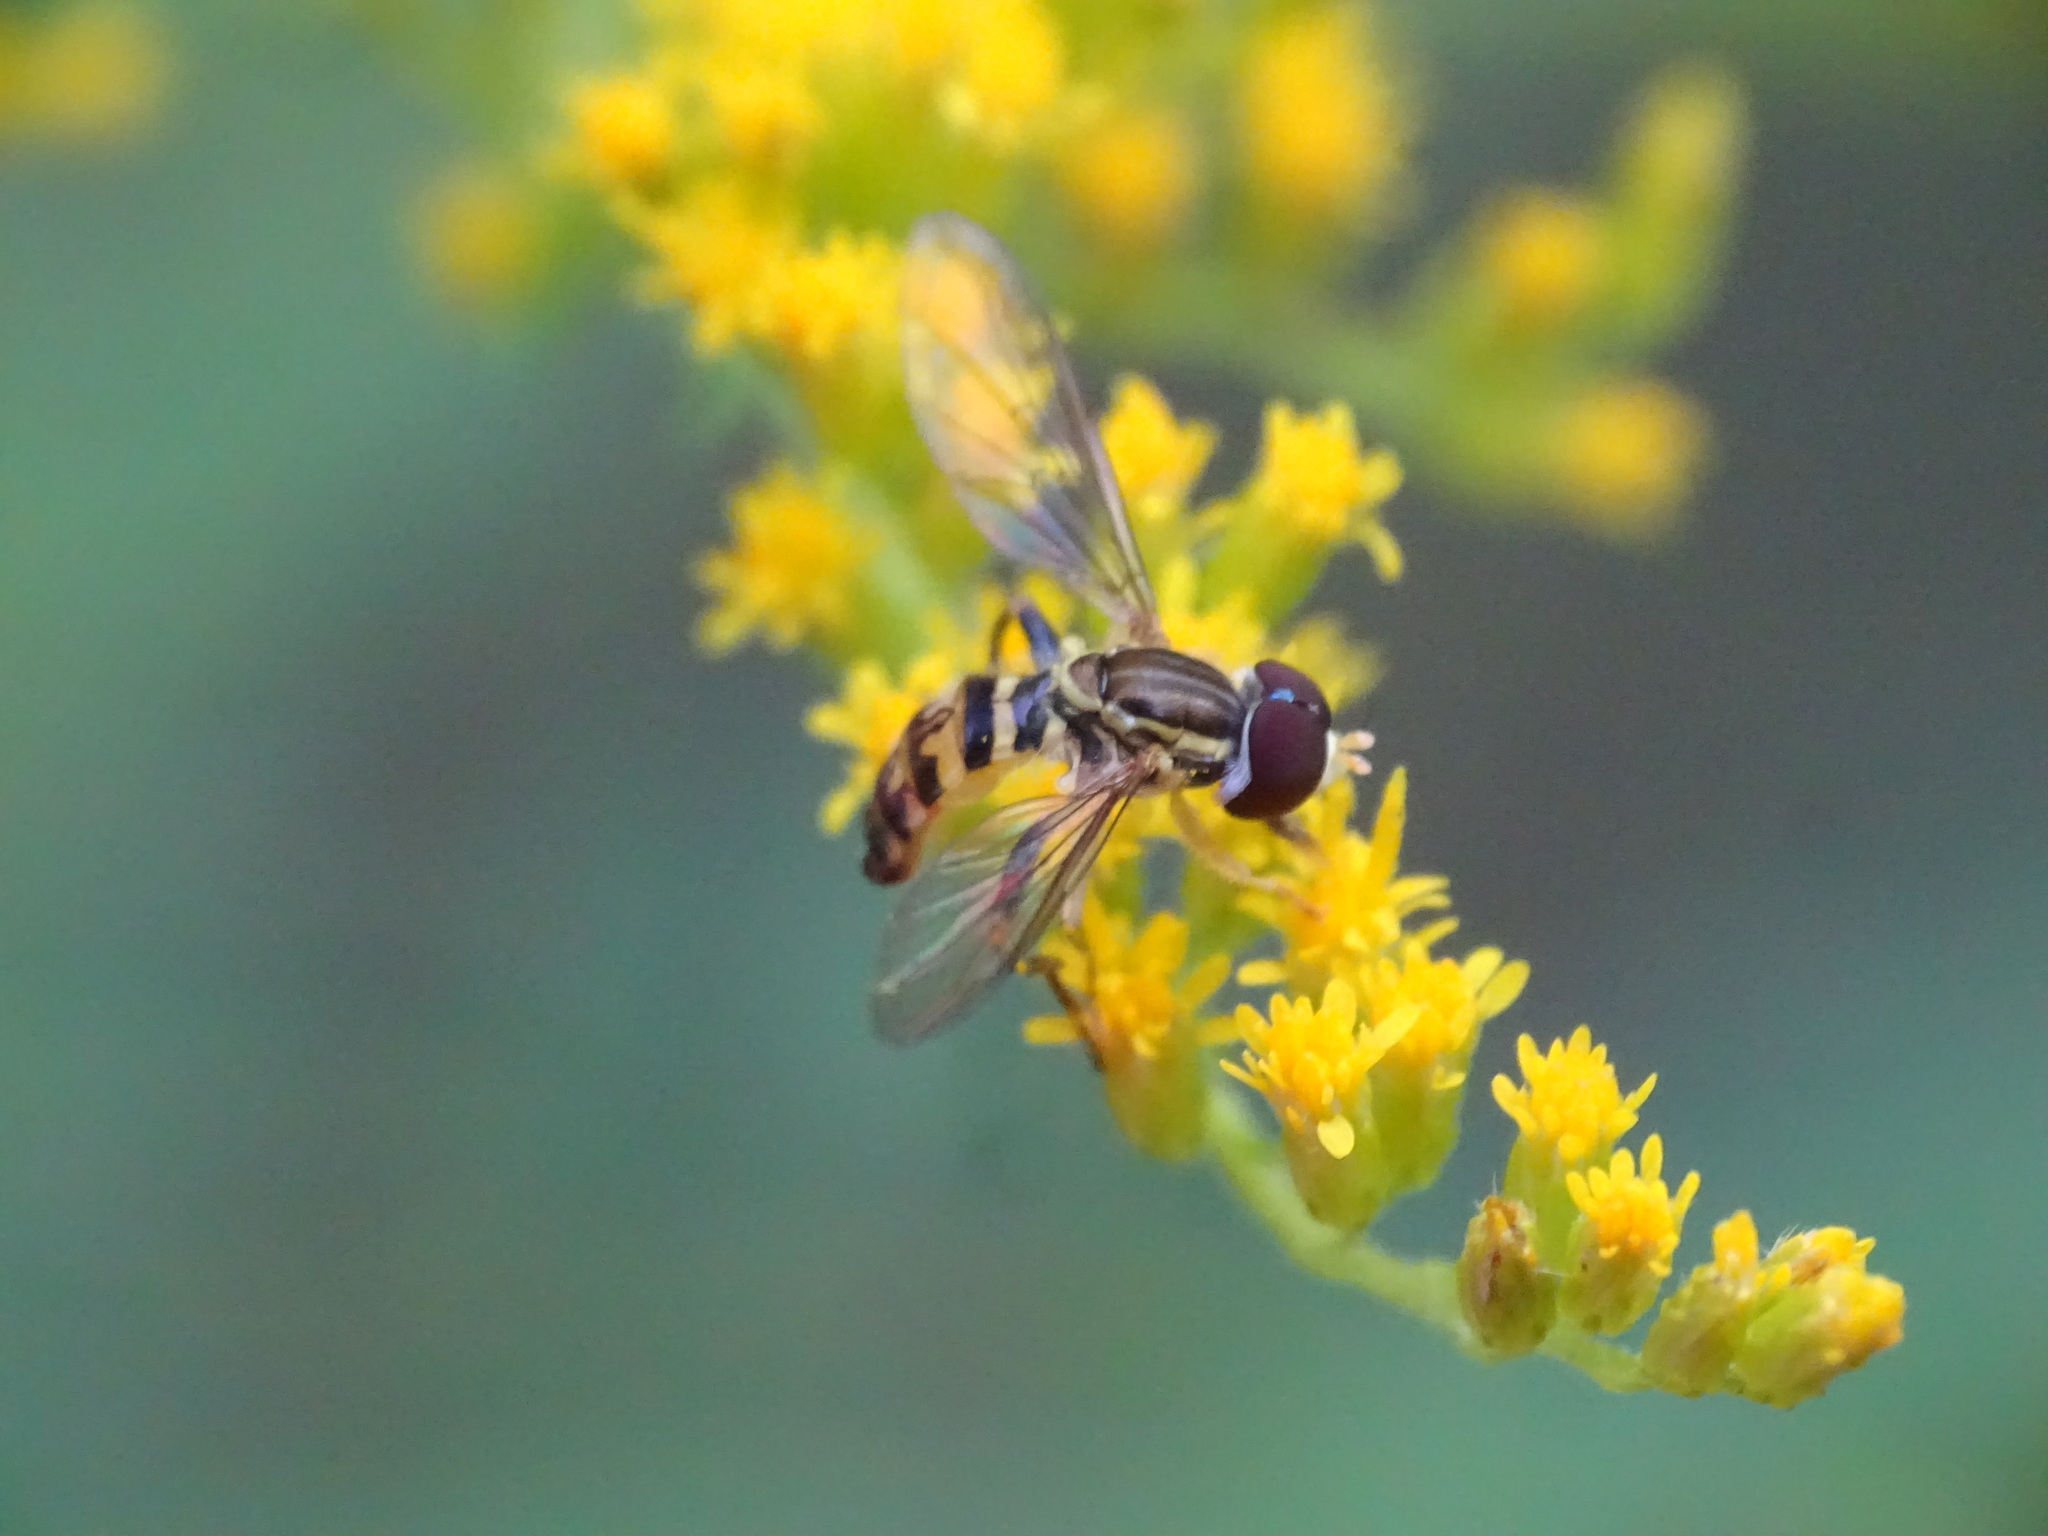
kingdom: Animalia
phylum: Arthropoda
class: Insecta
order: Diptera
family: Syrphidae
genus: Toxomerus
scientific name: Toxomerus geminatus
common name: Eastern calligrapher
